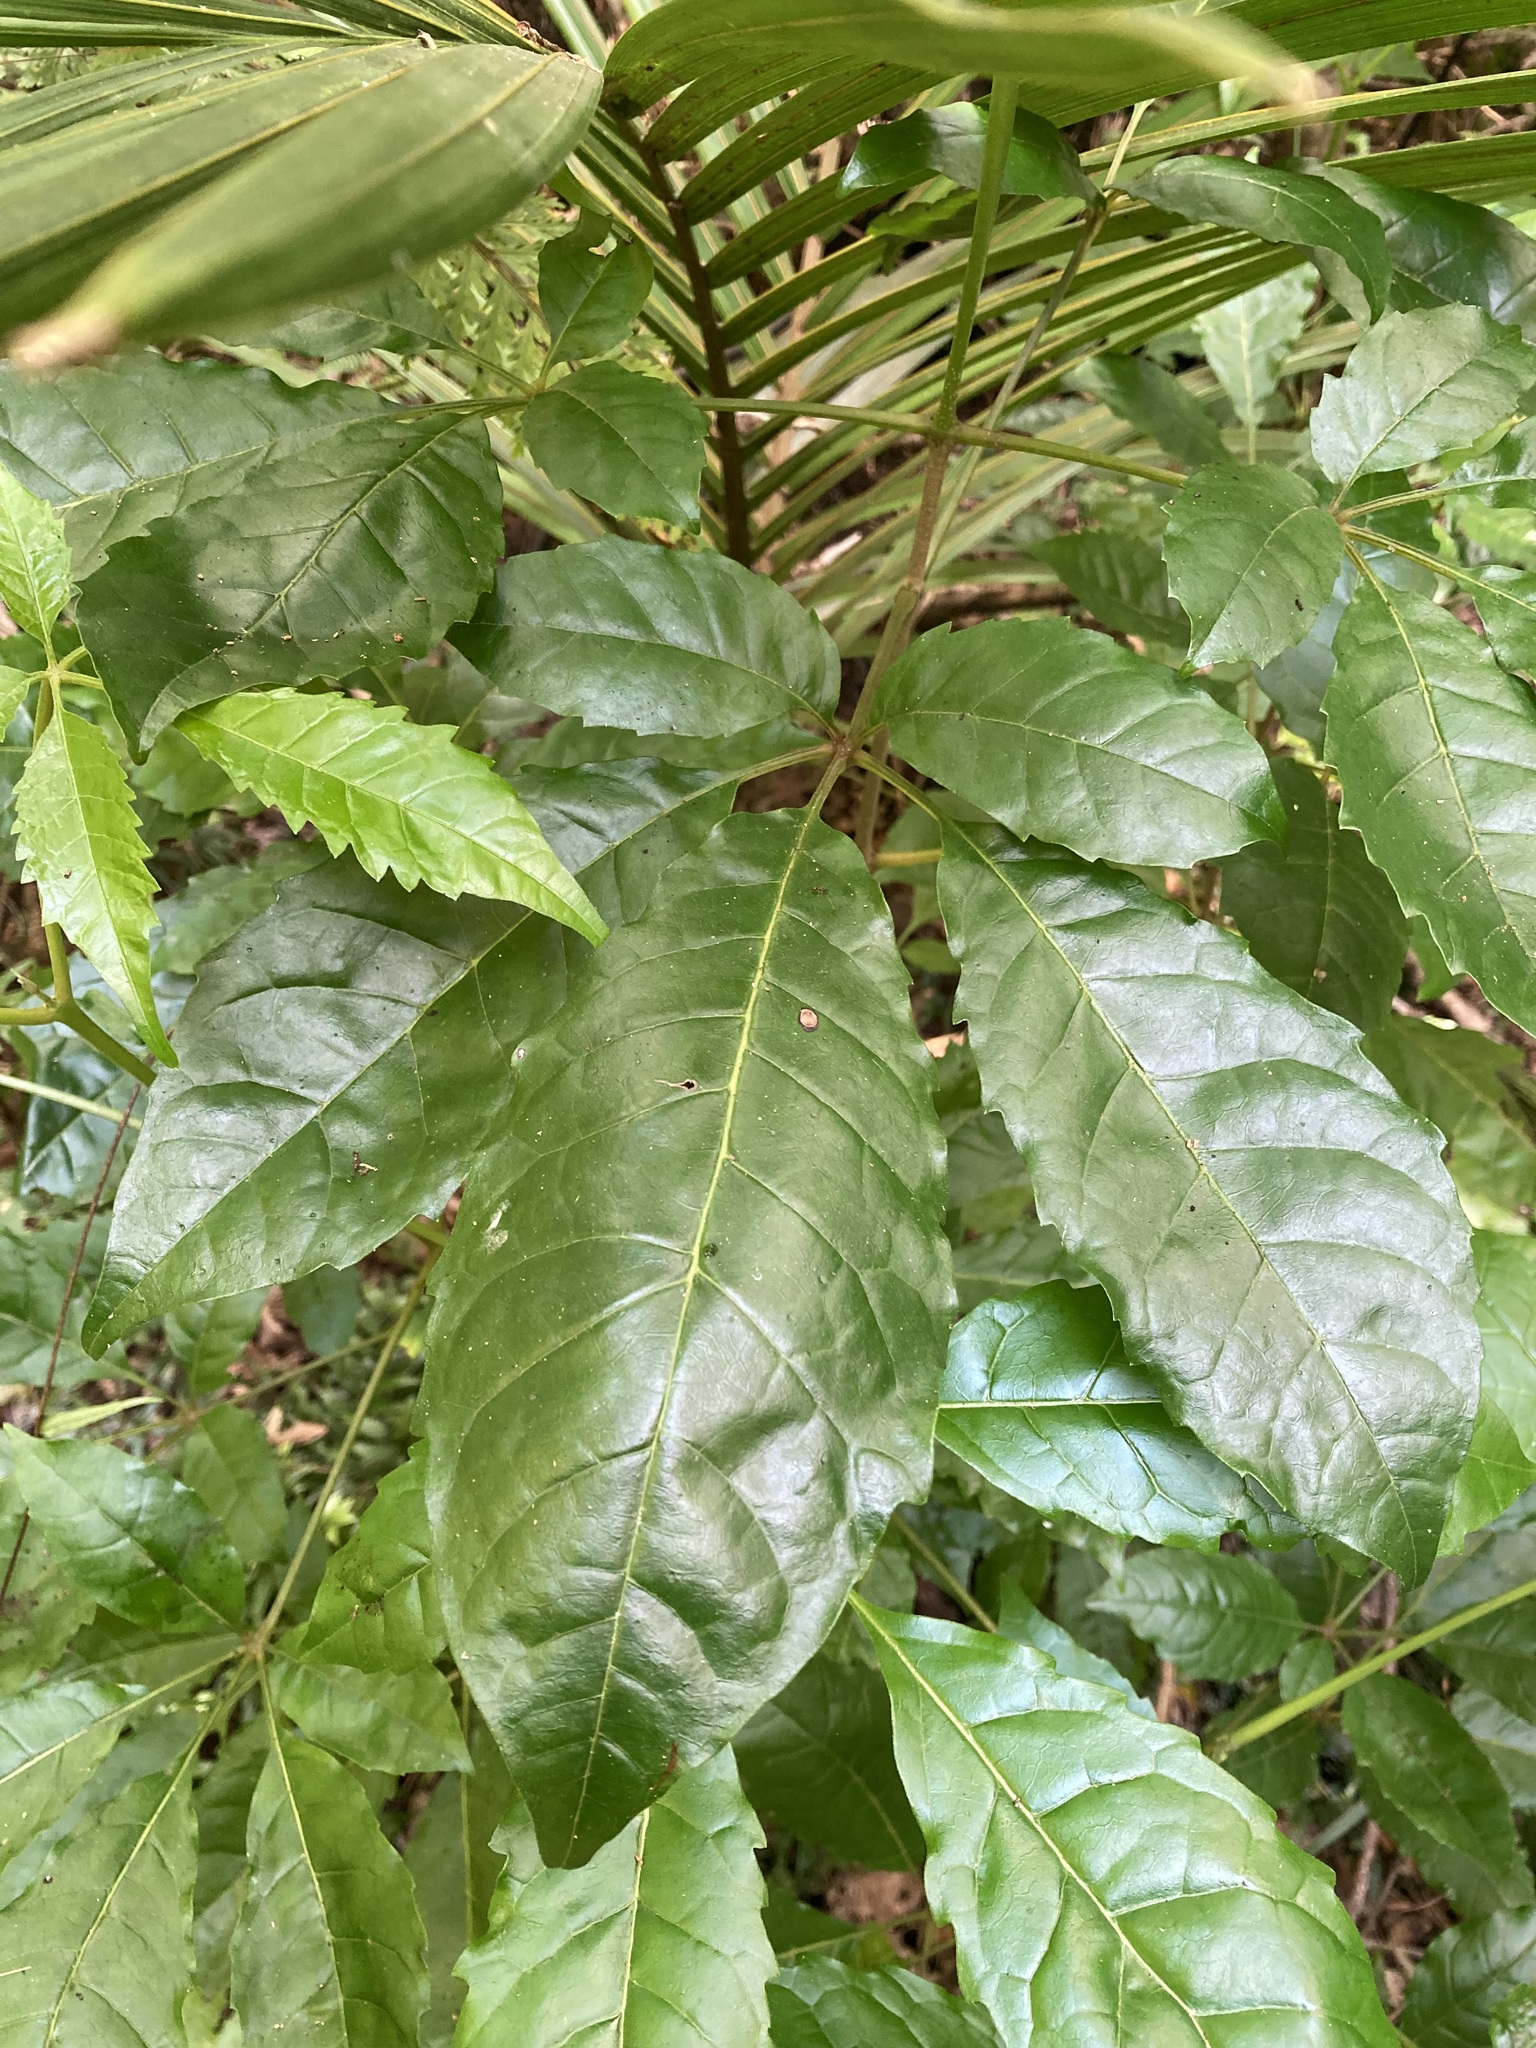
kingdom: Plantae
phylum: Tracheophyta
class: Magnoliopsida
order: Lamiales
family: Lamiaceae
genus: Vitex
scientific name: Vitex lucens
